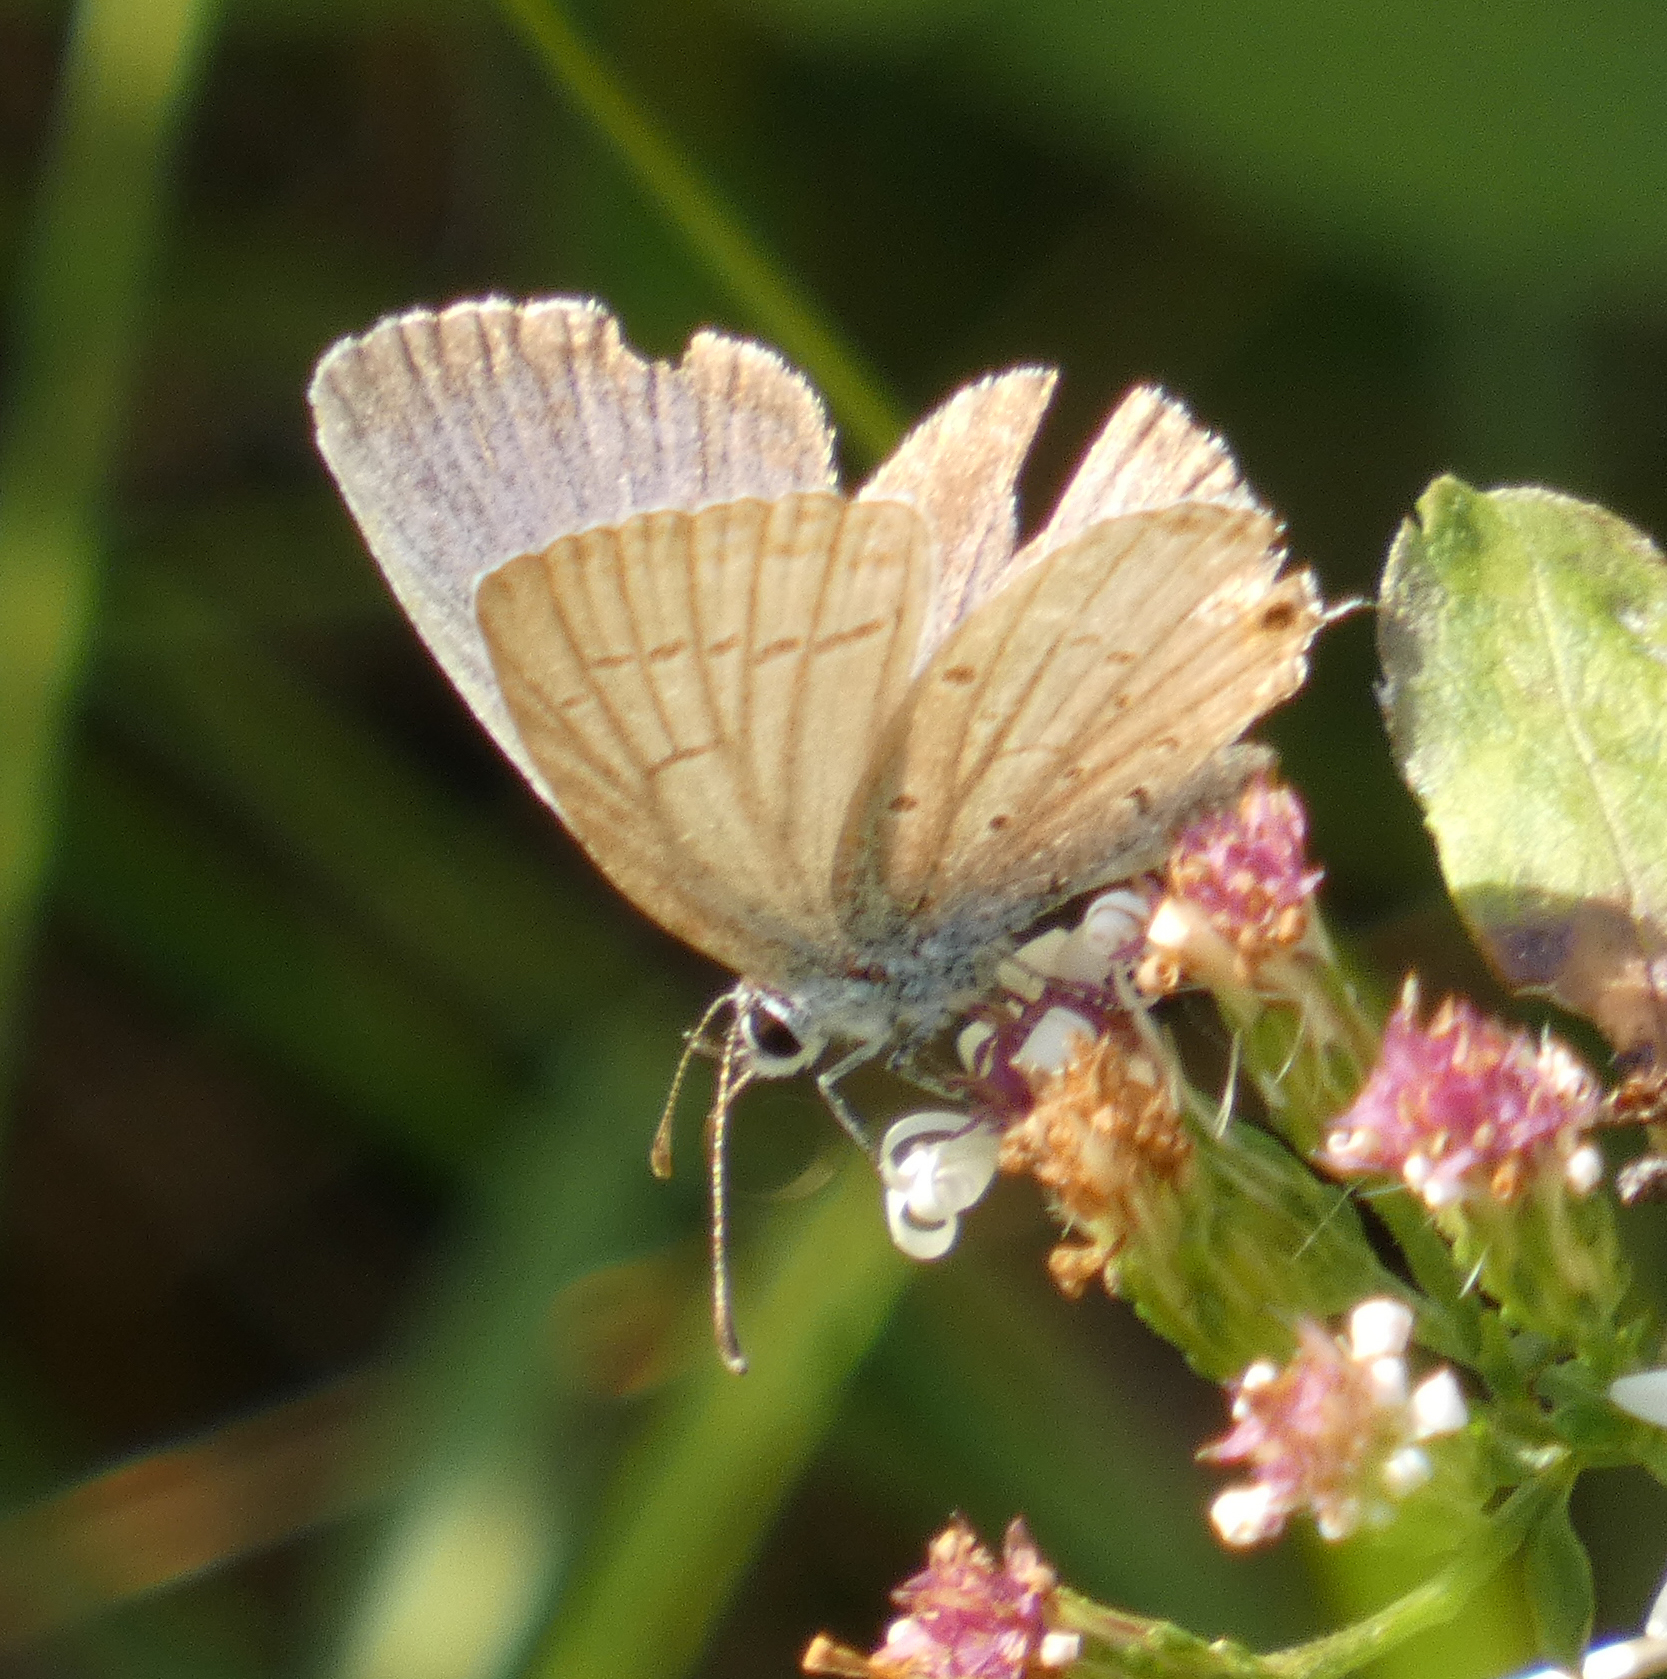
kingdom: Animalia
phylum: Arthropoda
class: Insecta
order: Lepidoptera
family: Lycaenidae
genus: Elkalyce
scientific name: Elkalyce comyntas
